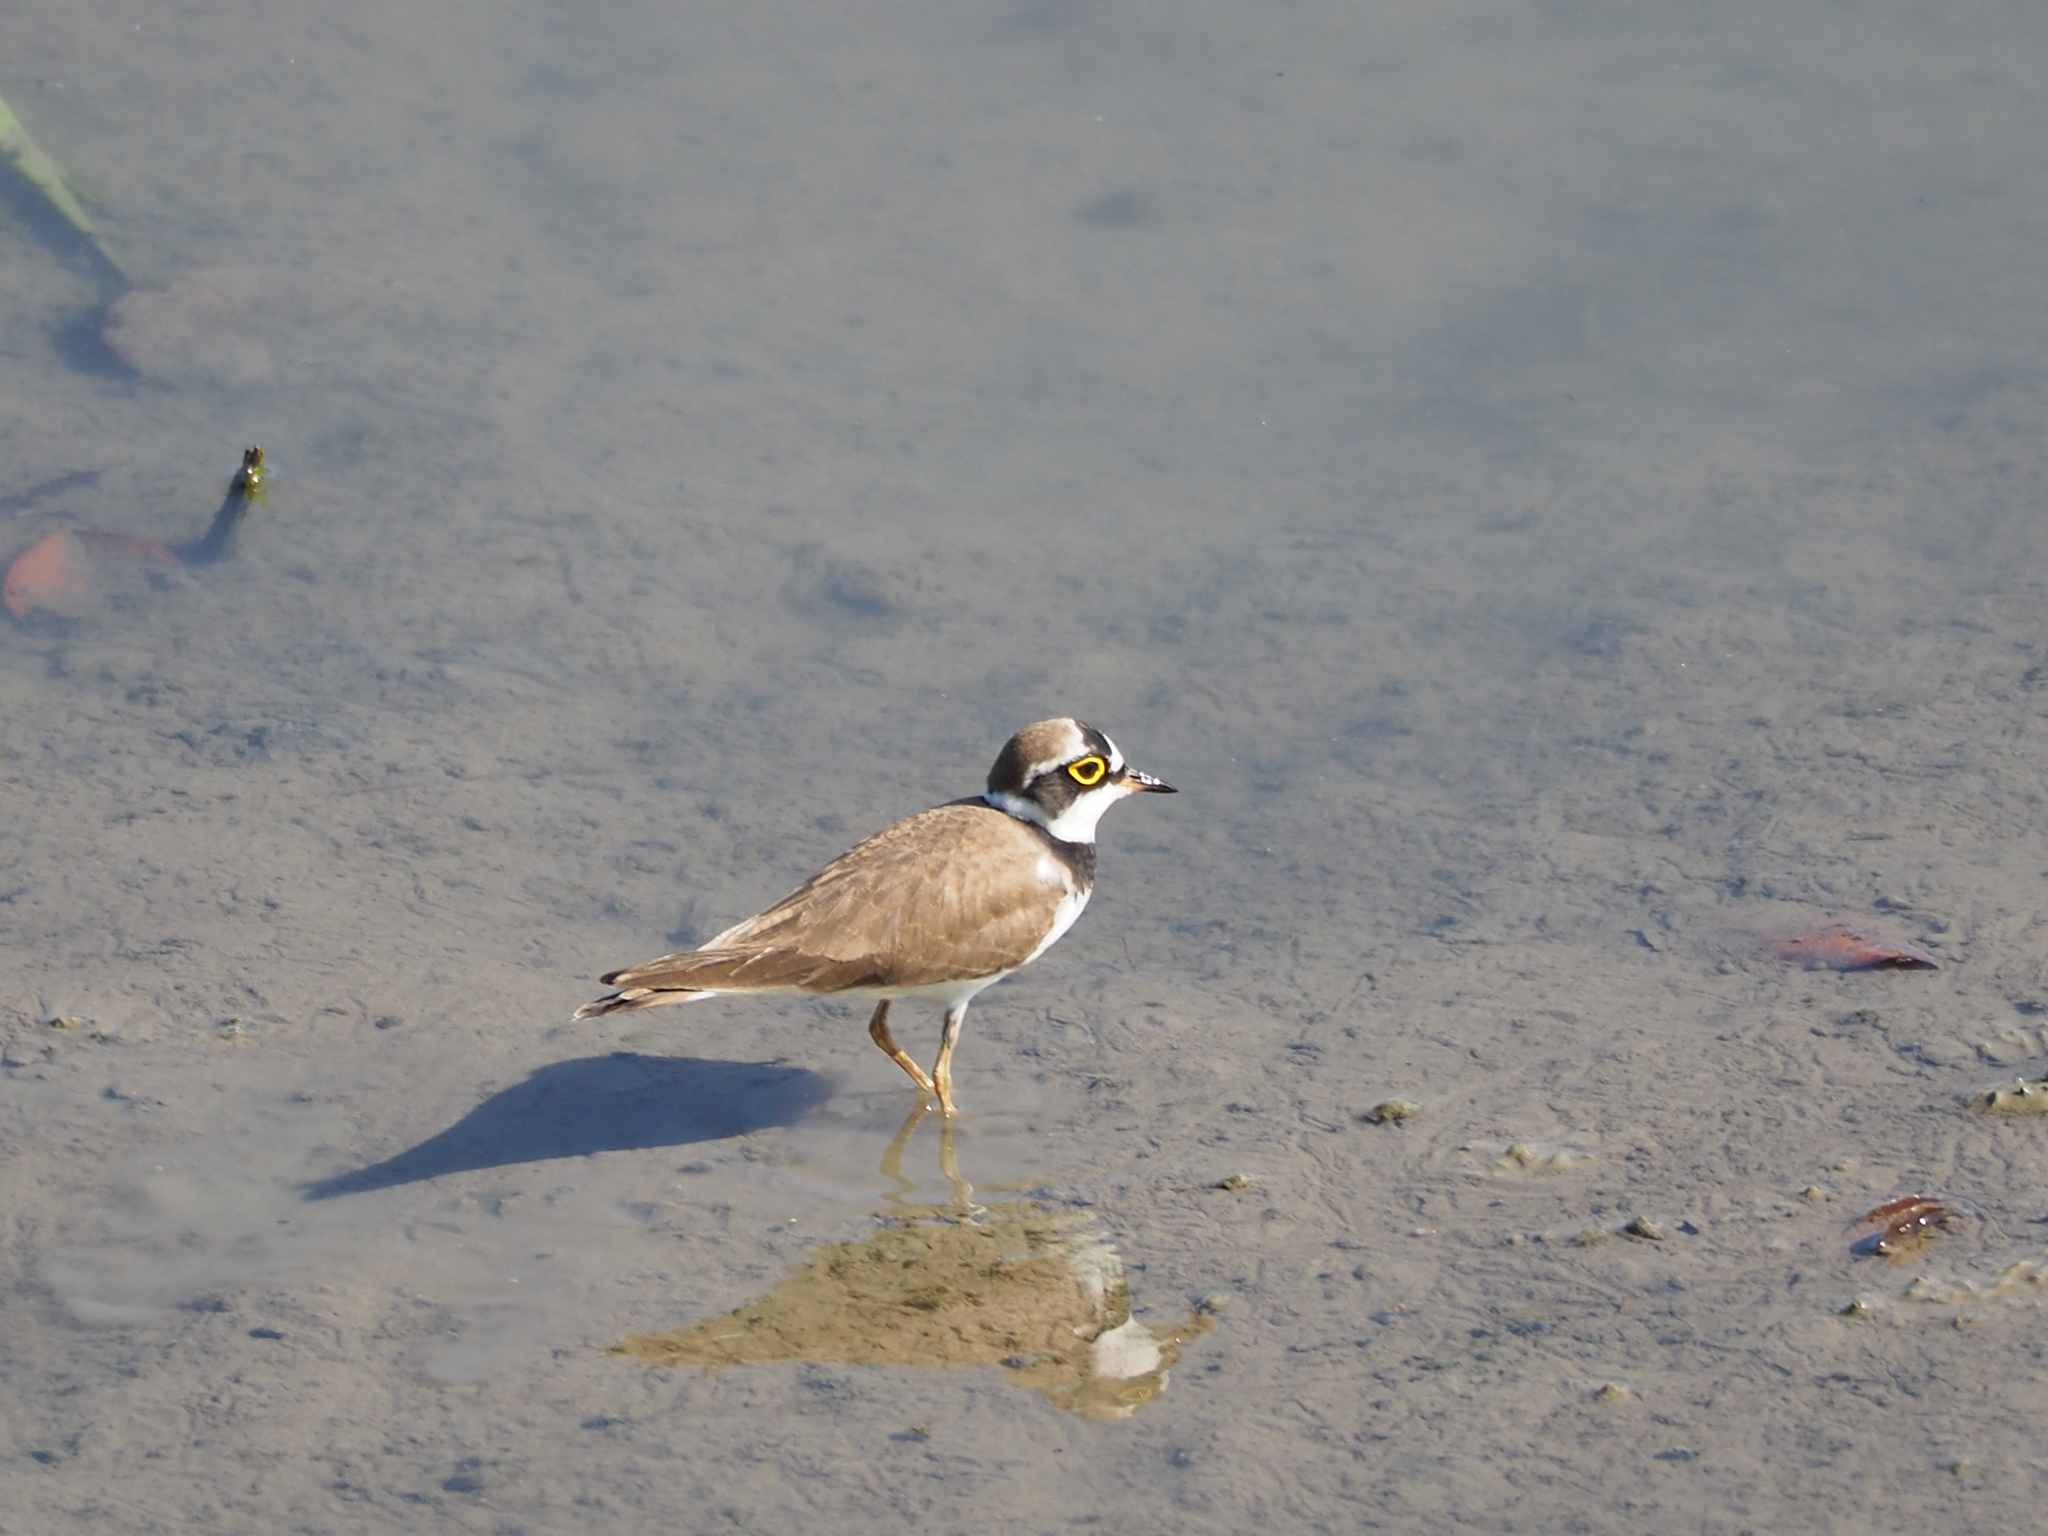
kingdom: Animalia
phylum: Chordata
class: Aves
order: Charadriiformes
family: Charadriidae
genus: Charadrius
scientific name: Charadrius dubius
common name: Little ringed plover
